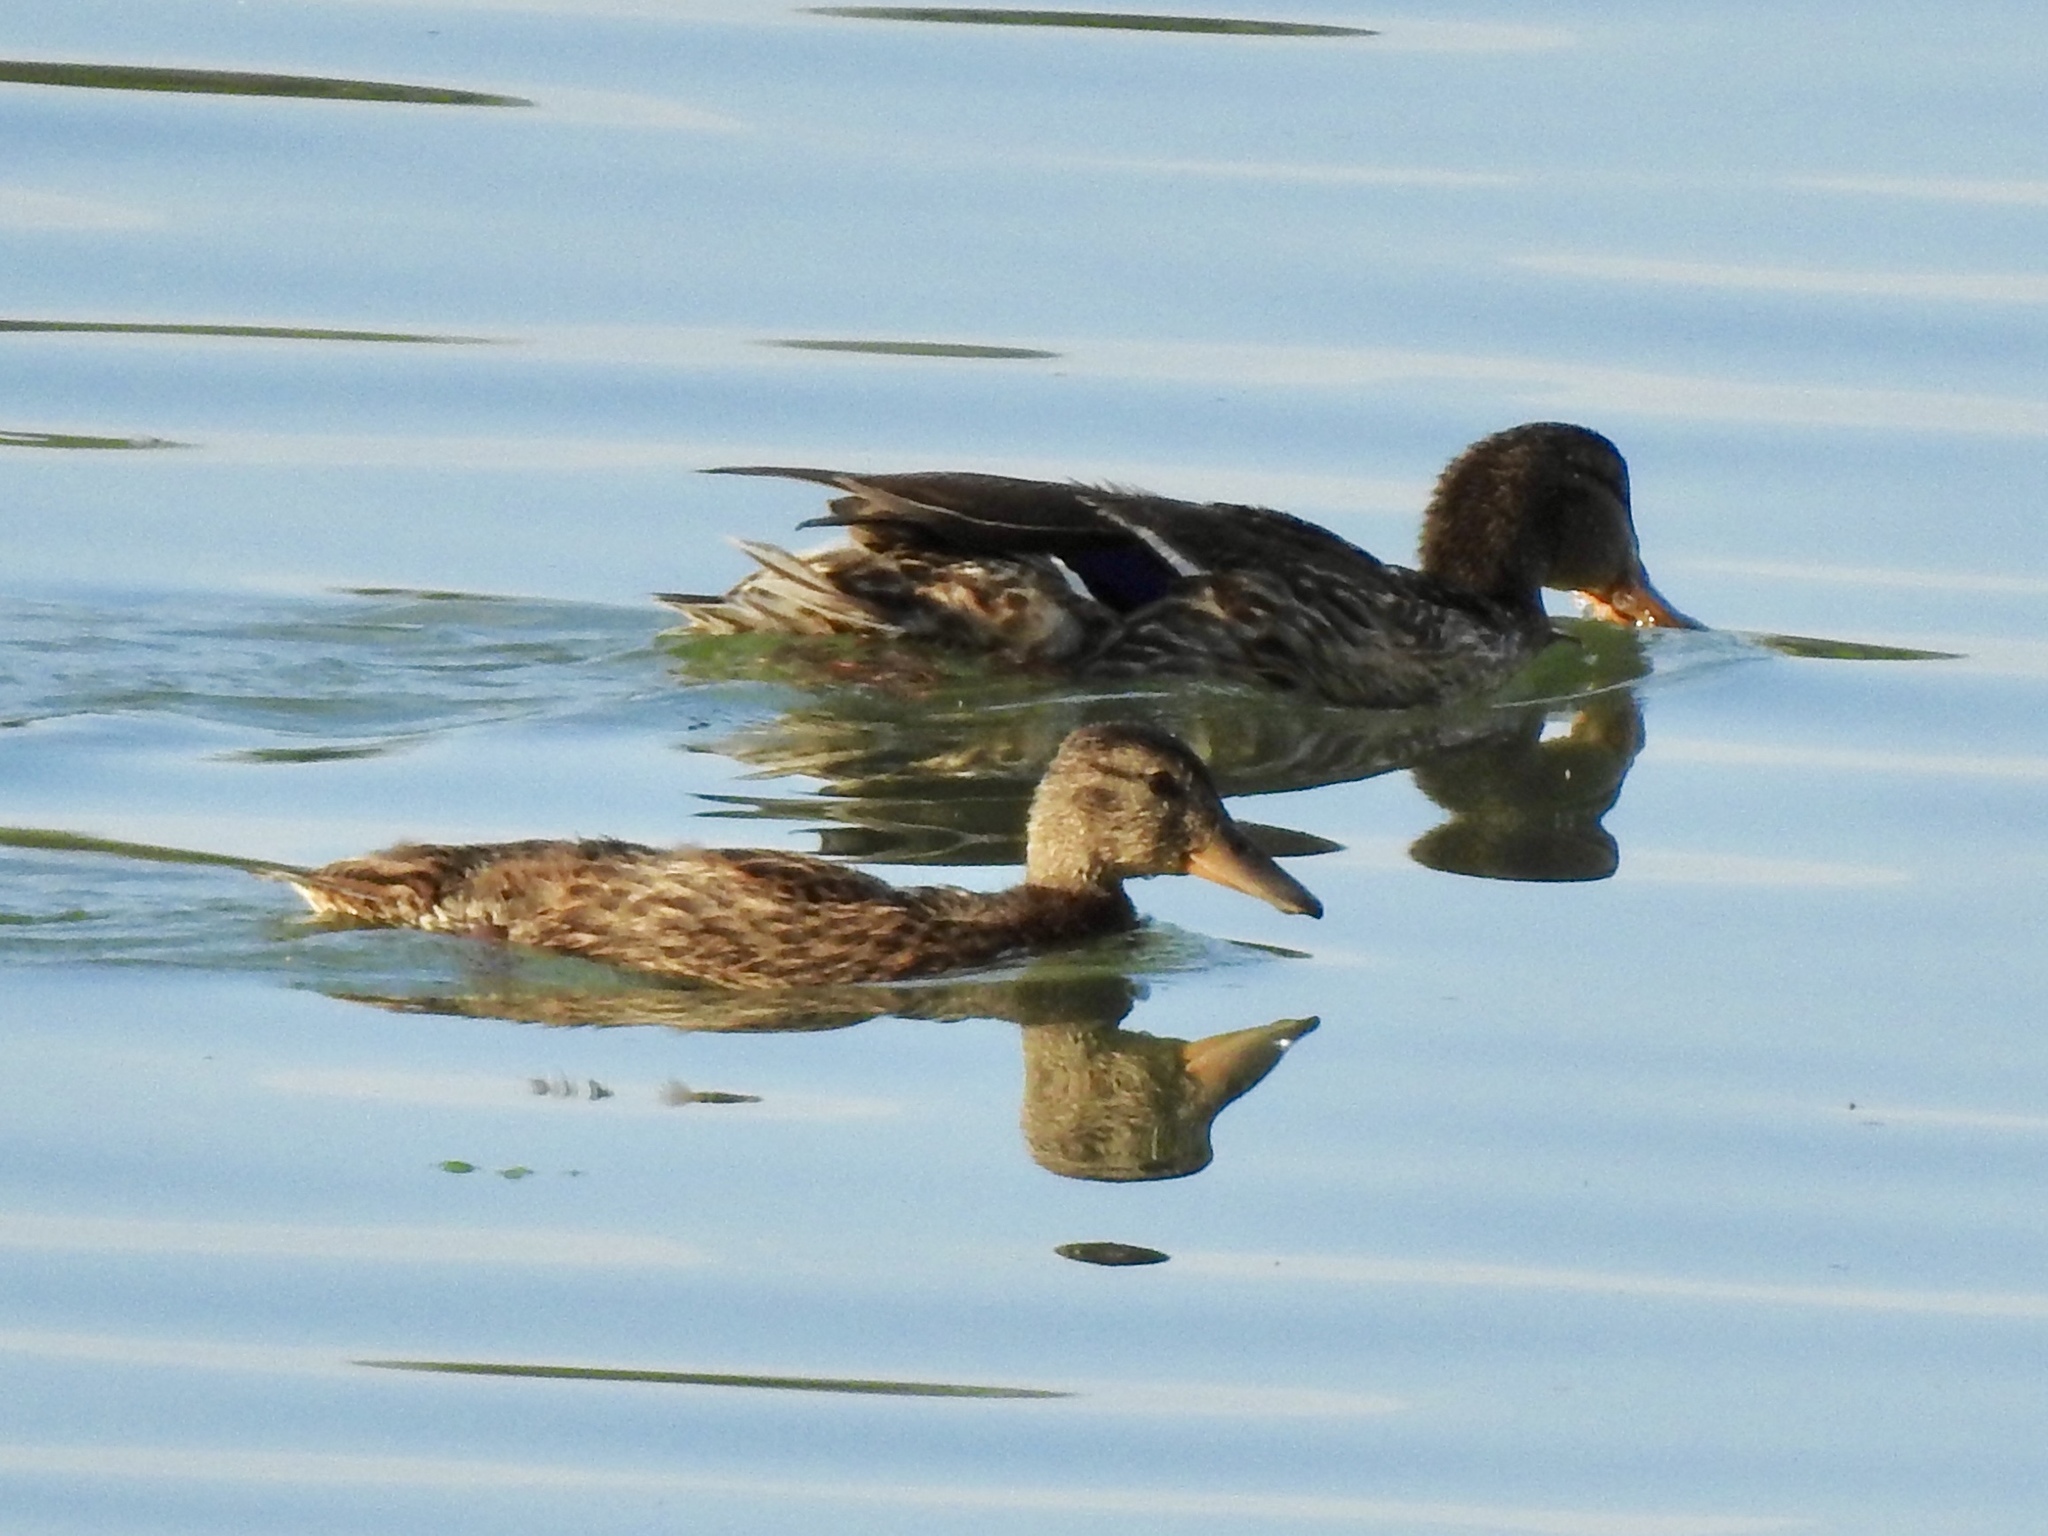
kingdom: Animalia
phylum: Chordata
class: Aves
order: Anseriformes
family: Anatidae
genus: Anas
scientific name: Anas platyrhynchos
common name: Mallard
